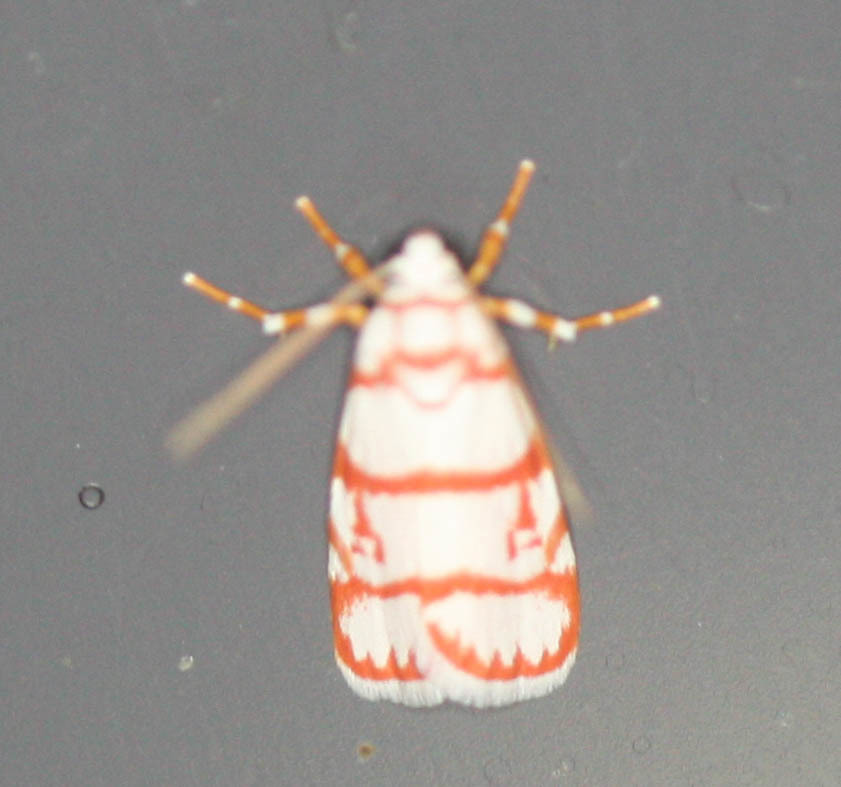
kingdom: Animalia
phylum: Arthropoda
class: Insecta
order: Lepidoptera
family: Erebidae
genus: Cyana
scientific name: Cyana pudens
